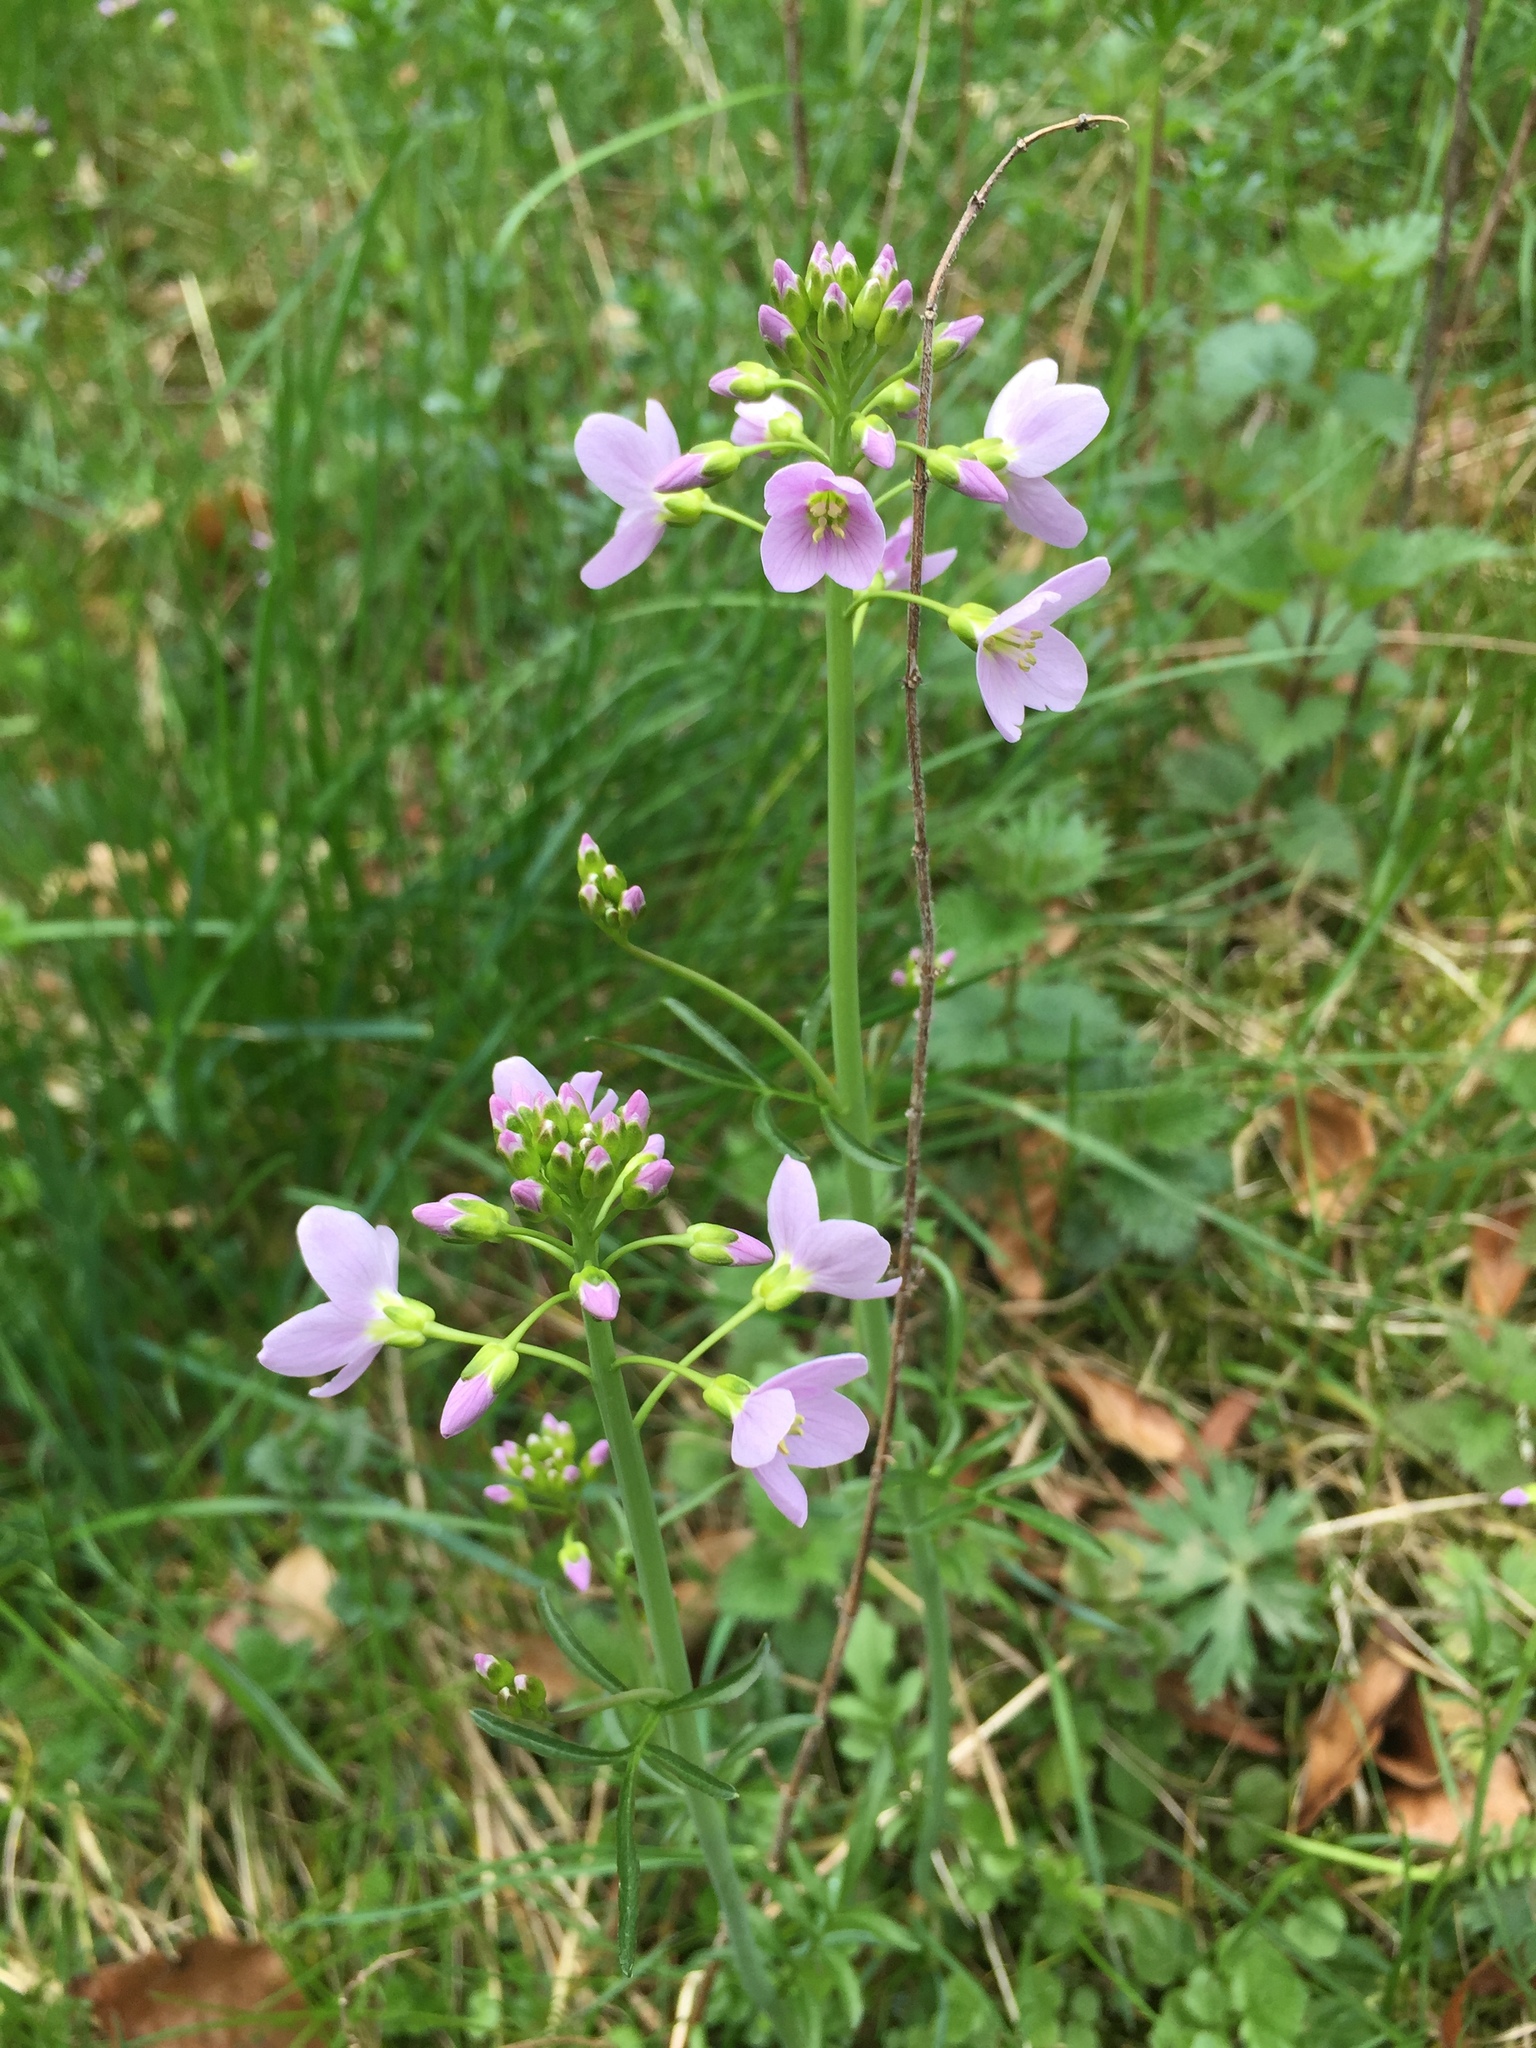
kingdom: Plantae
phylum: Tracheophyta
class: Magnoliopsida
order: Brassicales
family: Brassicaceae
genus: Cardamine
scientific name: Cardamine pratensis
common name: Cuckoo flower
